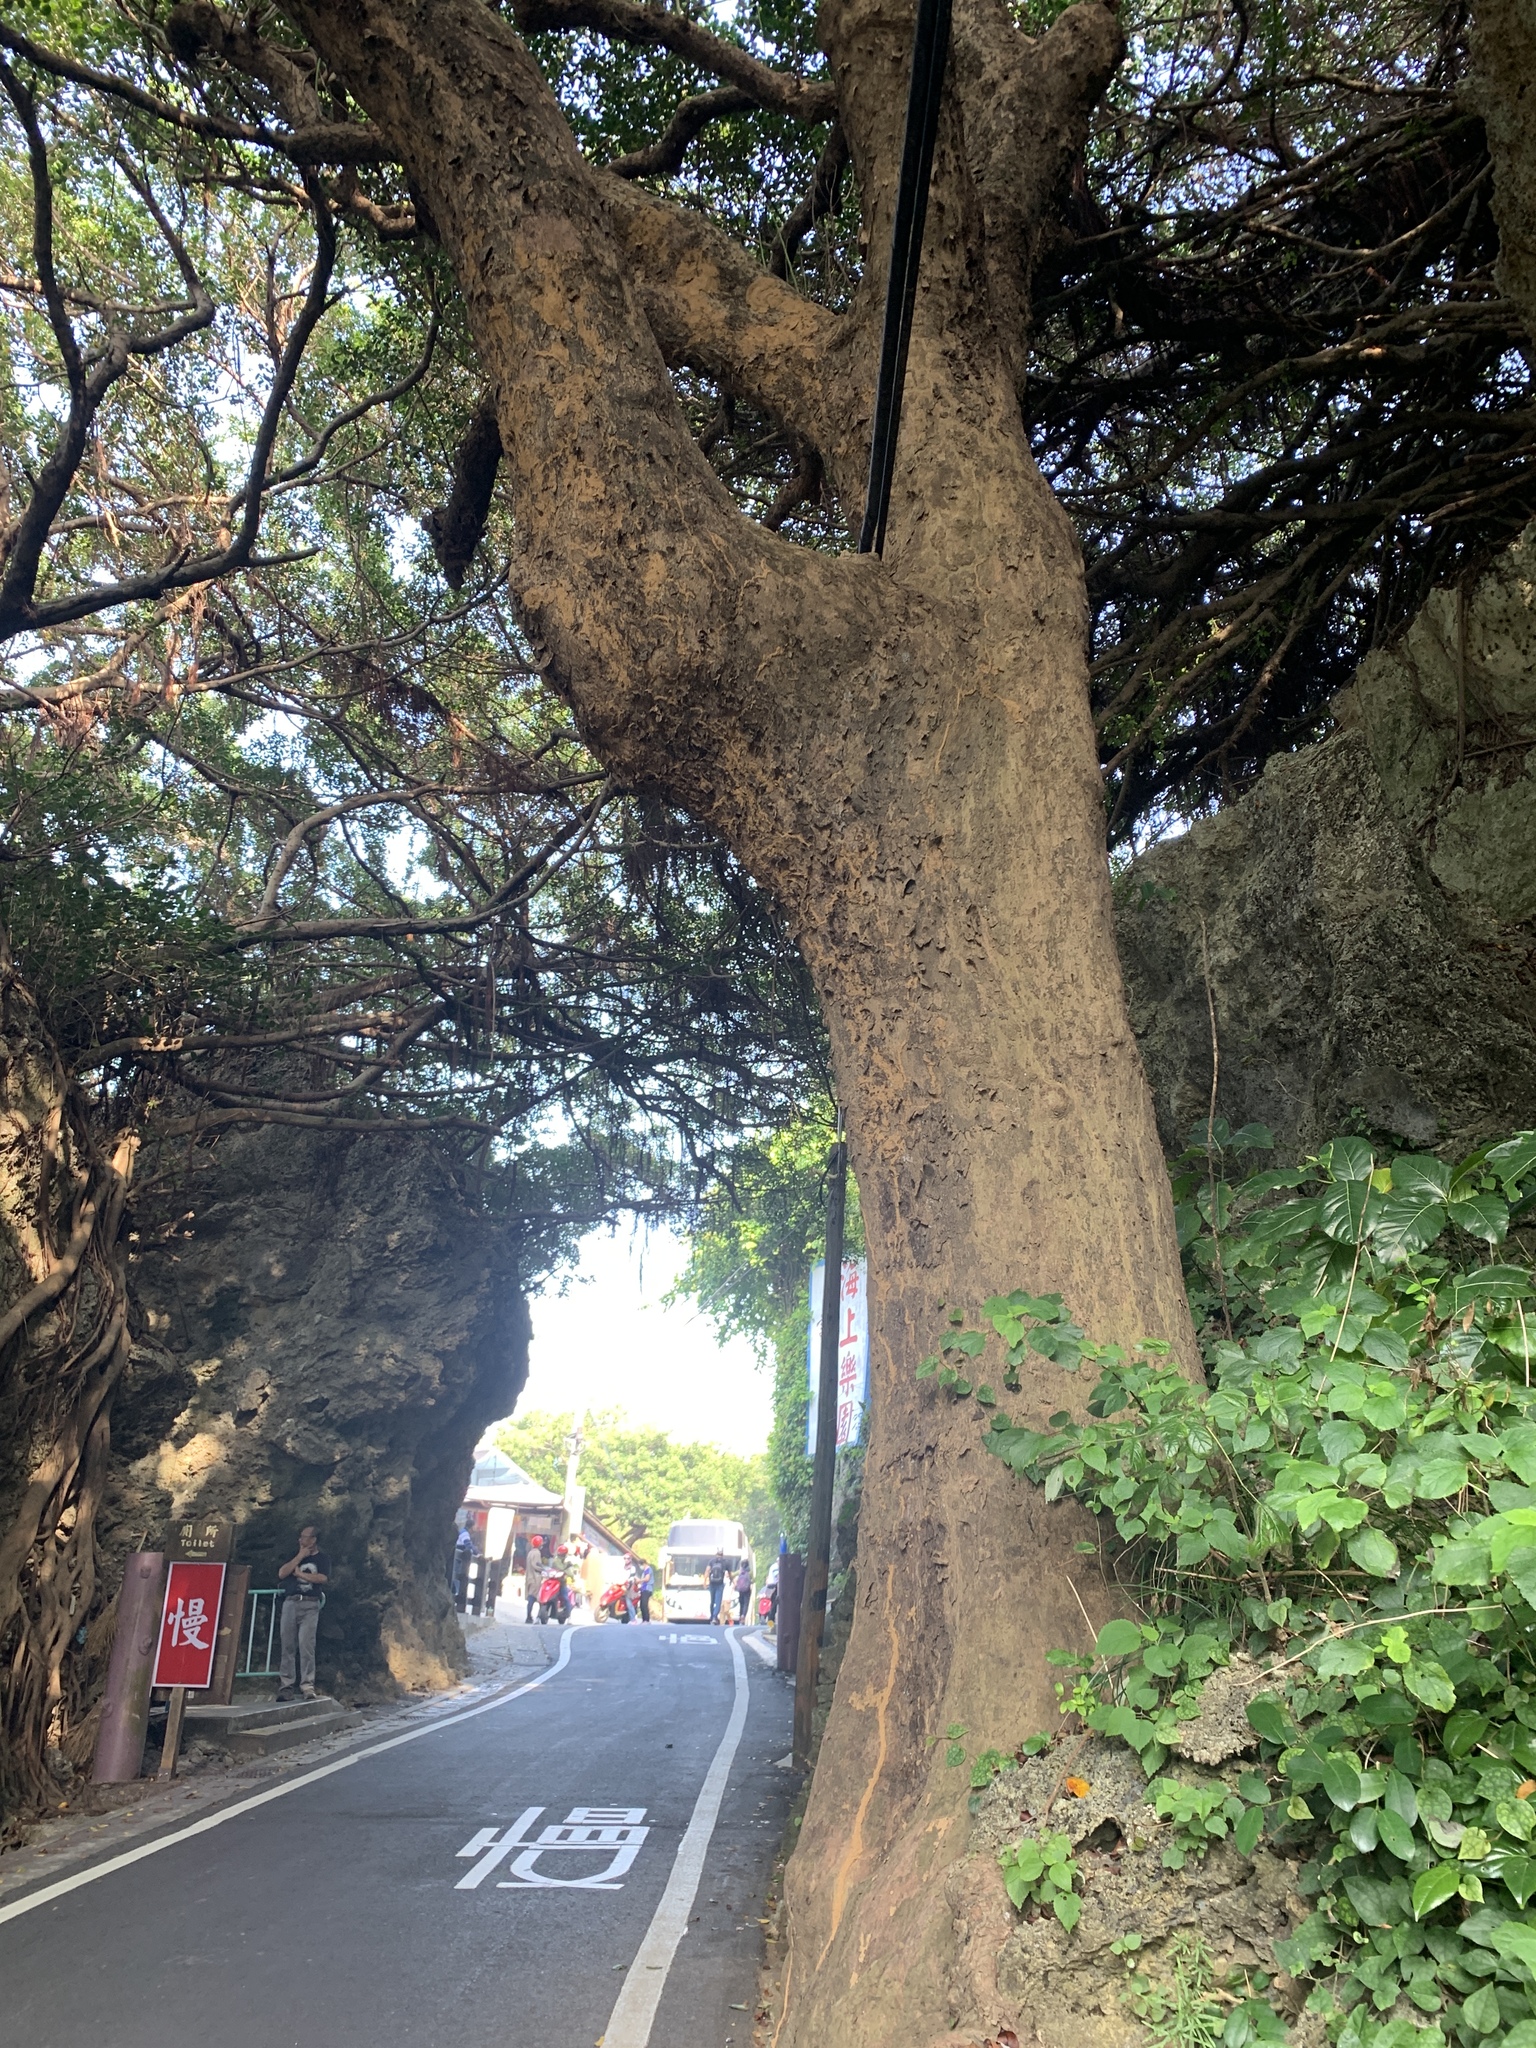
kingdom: Plantae
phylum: Tracheophyta
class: Magnoliopsida
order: Malpighiales
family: Phyllanthaceae
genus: Bischofia
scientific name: Bischofia javanica
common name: Javanese bishopwood
